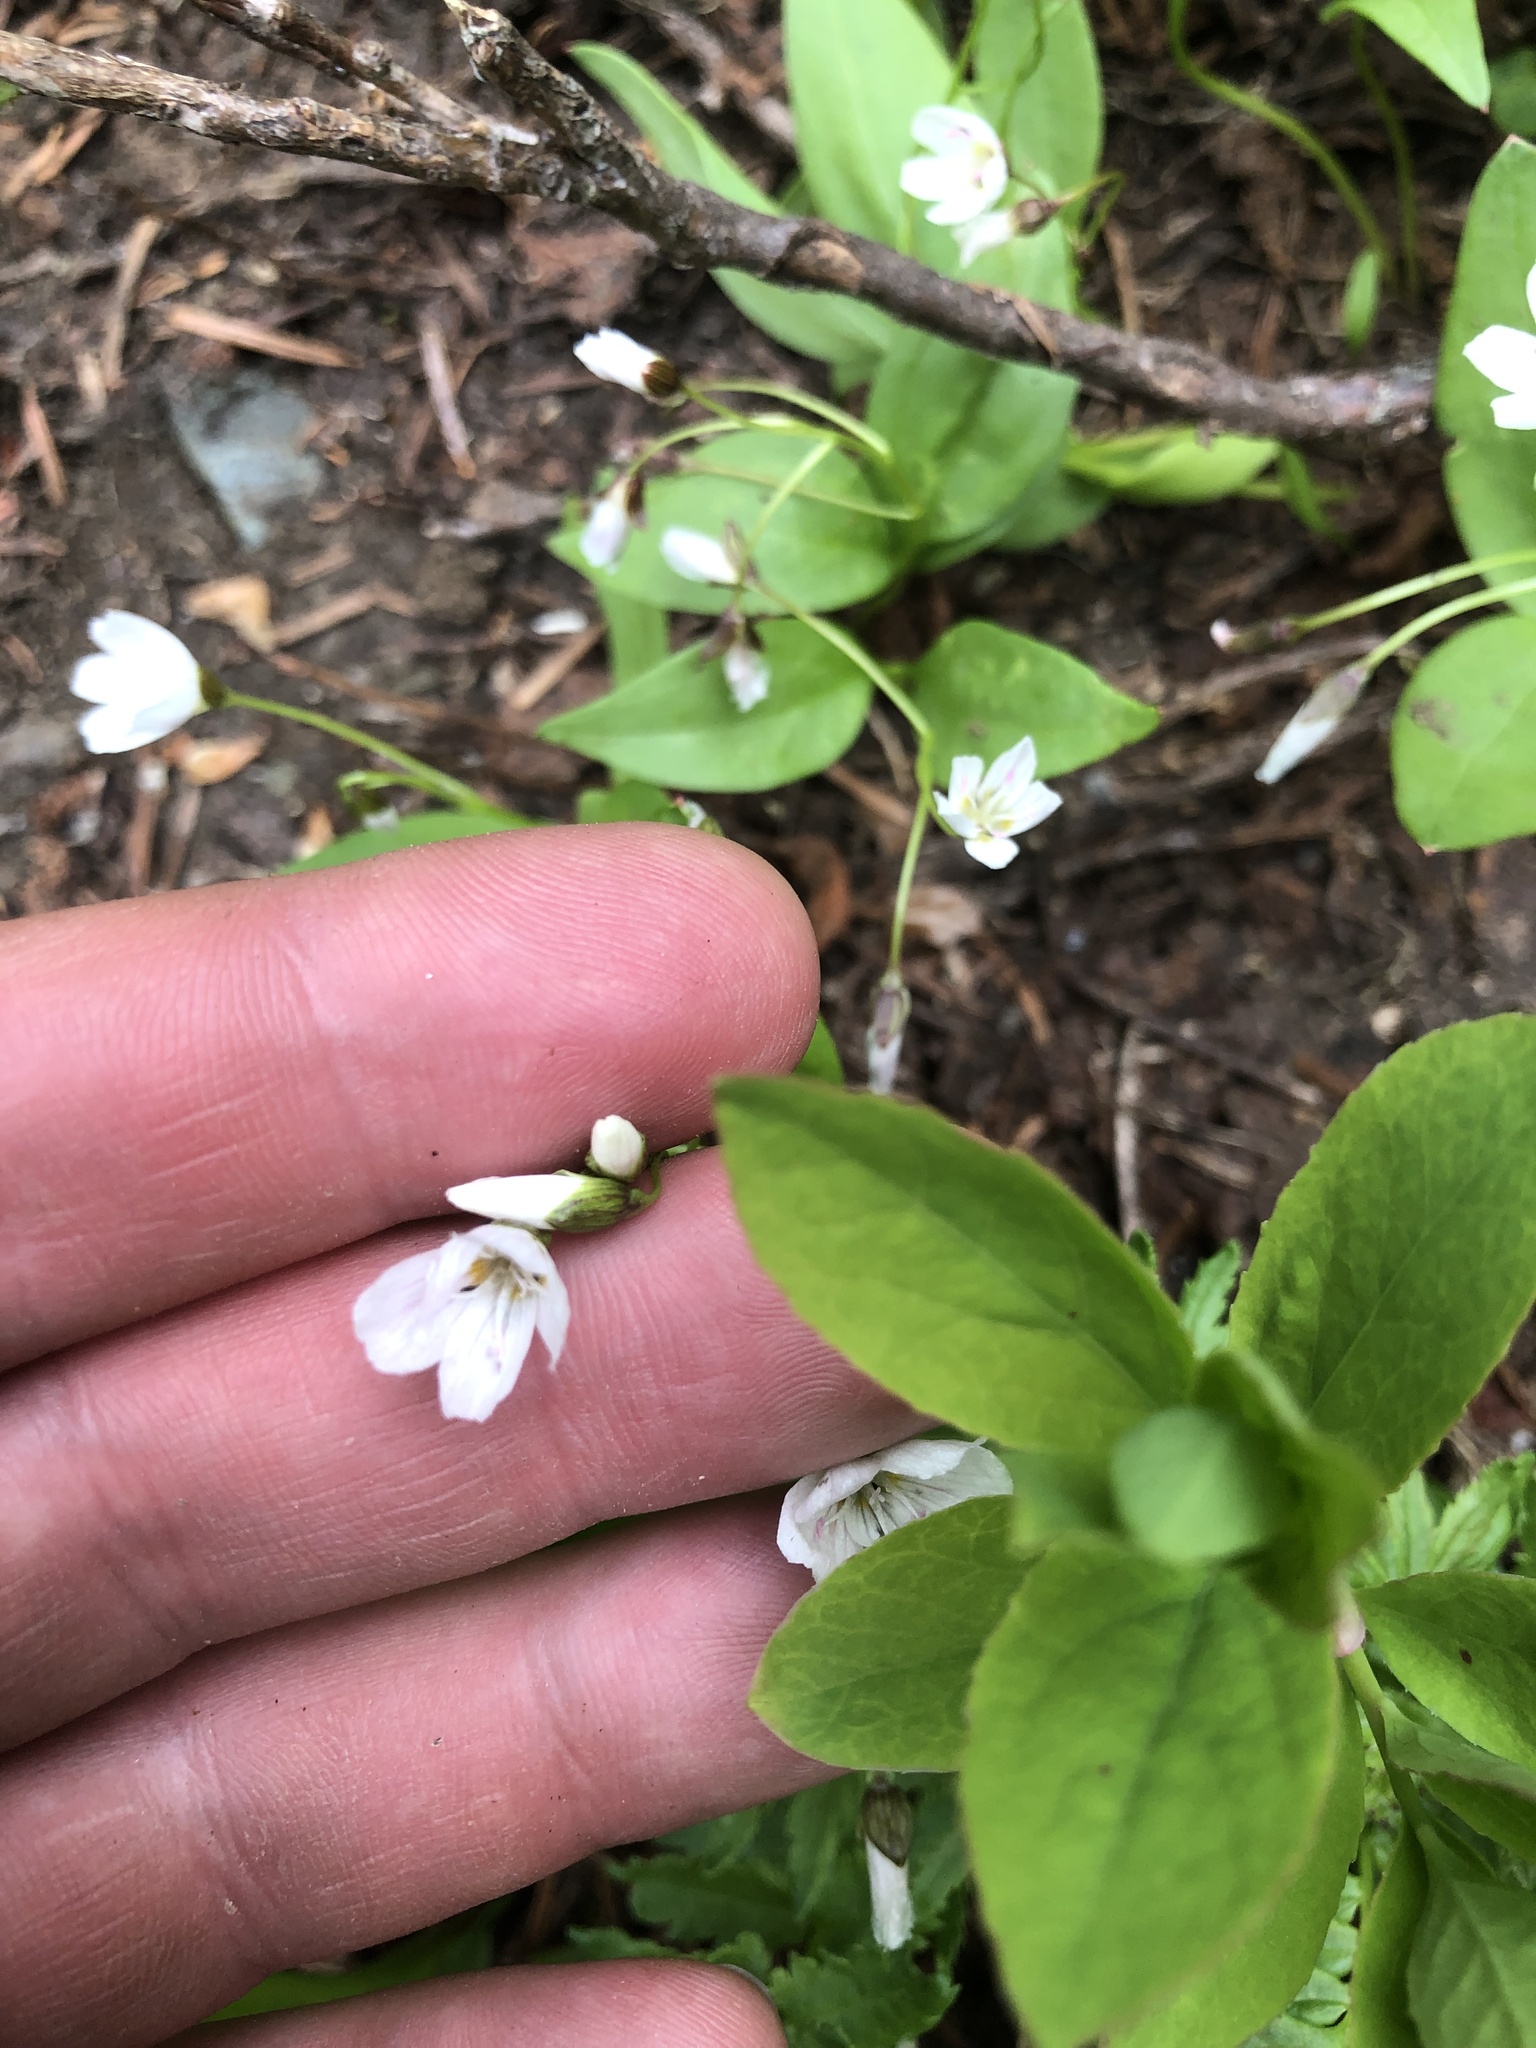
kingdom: Plantae
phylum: Tracheophyta
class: Magnoliopsida
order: Caryophyllales
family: Montiaceae
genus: Claytonia
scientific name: Claytonia lanceolata
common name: Western spring-beauty
